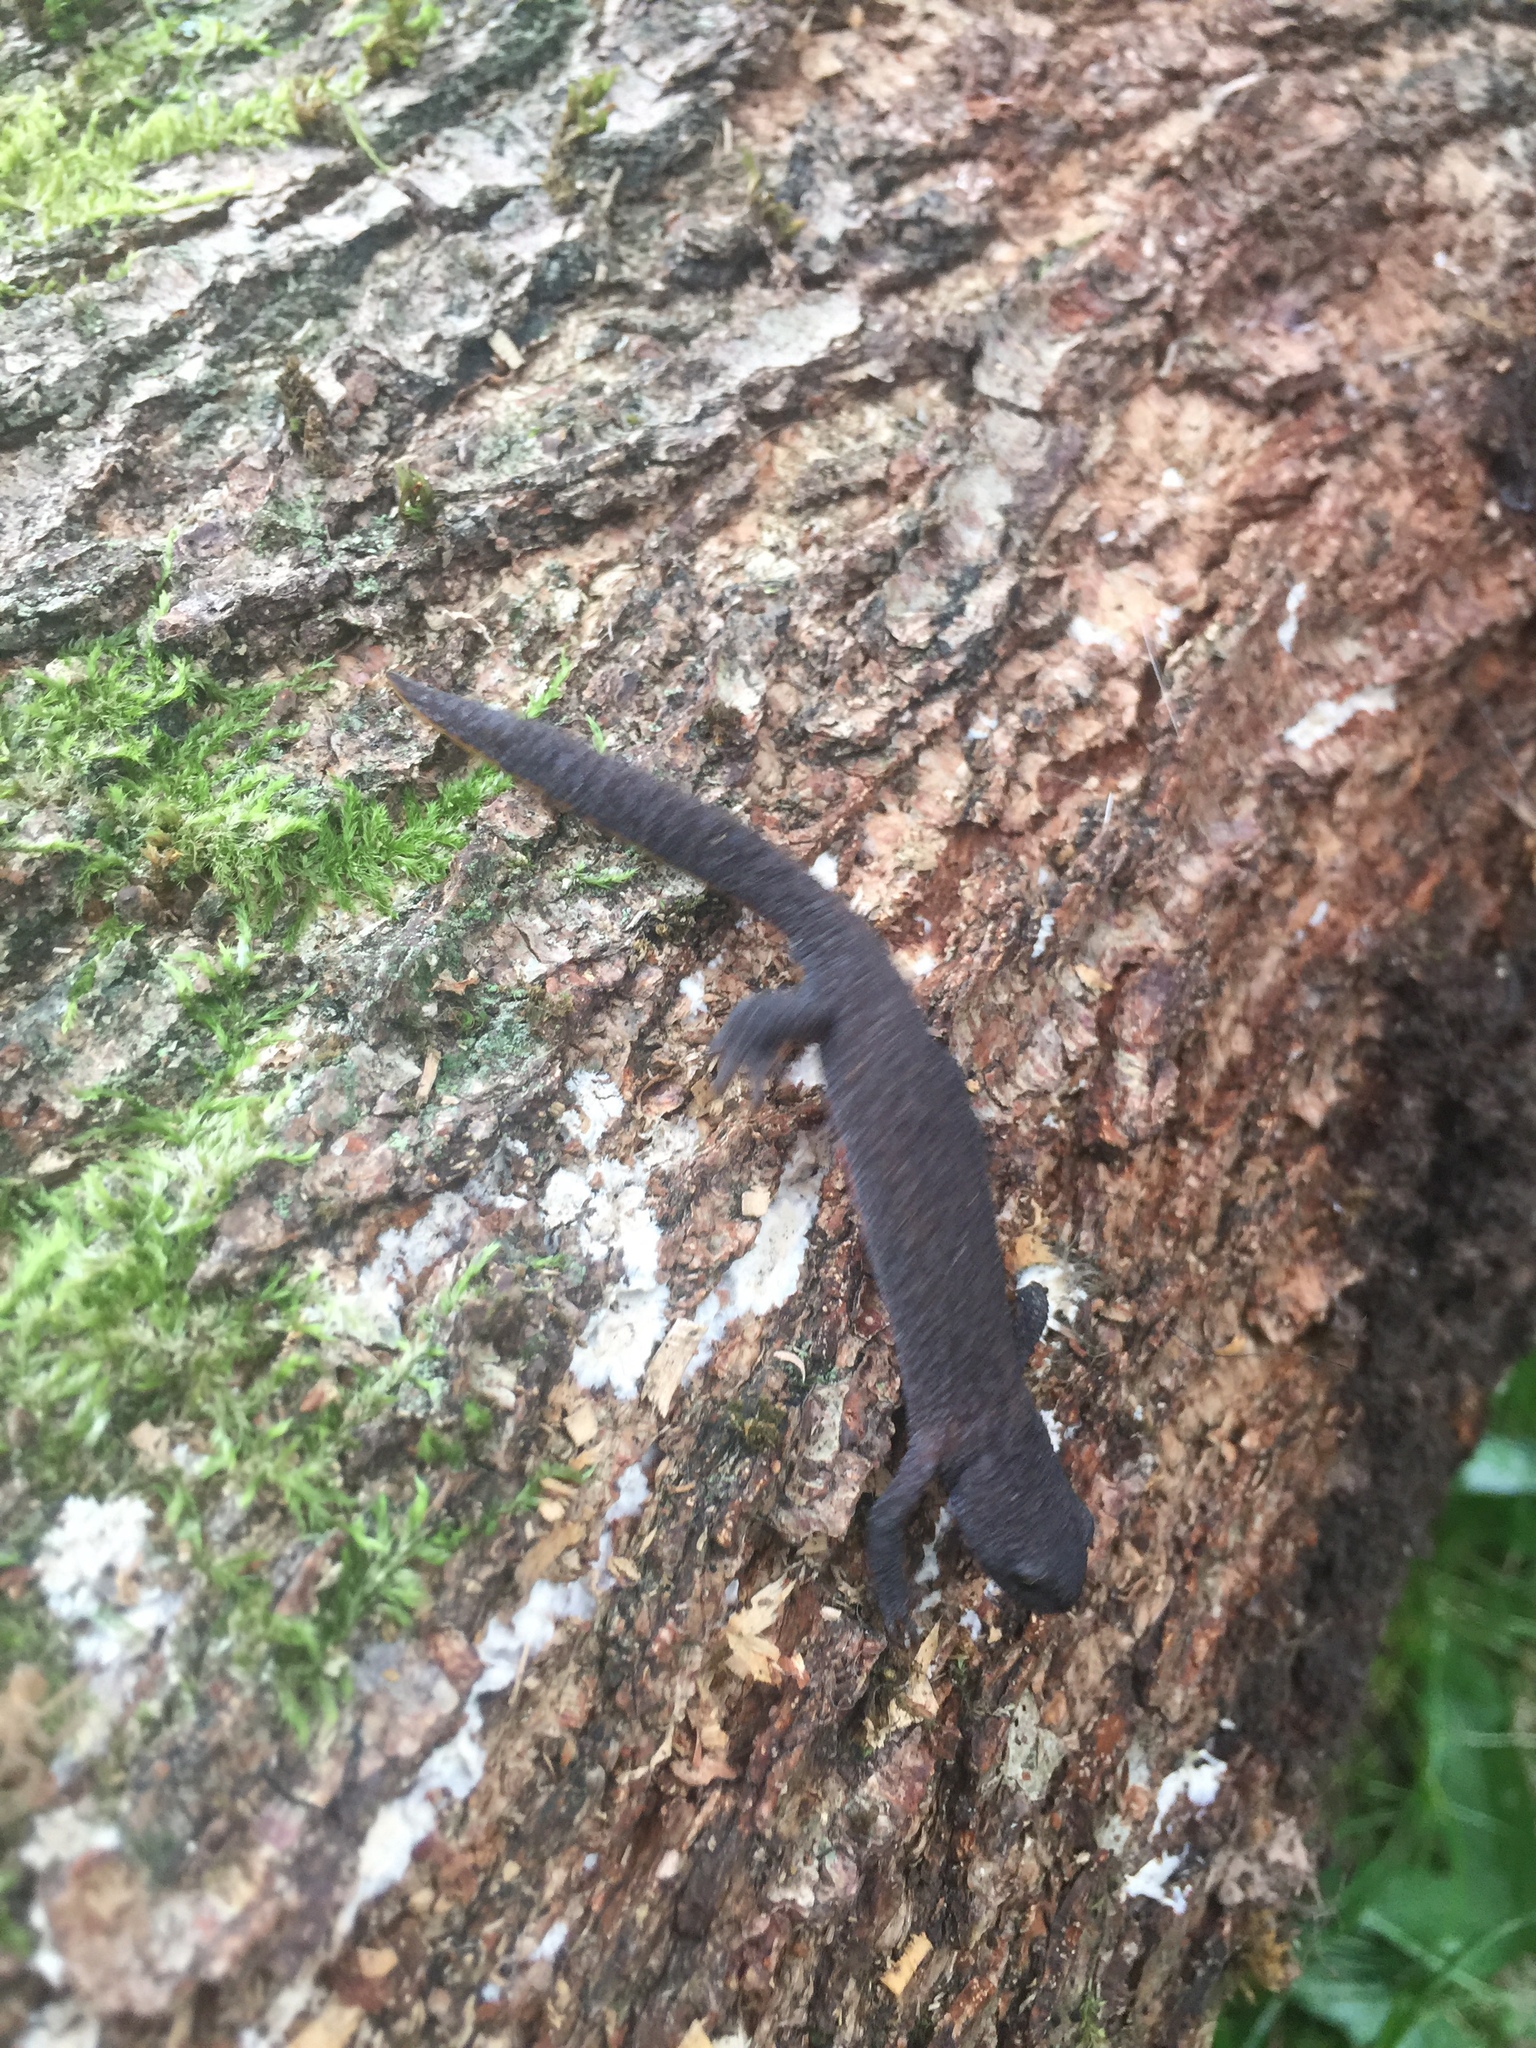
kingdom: Animalia
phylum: Chordata
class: Amphibia
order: Caudata
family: Salamandridae
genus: Ichthyosaura
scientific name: Ichthyosaura alpestris
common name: Alpine newt
